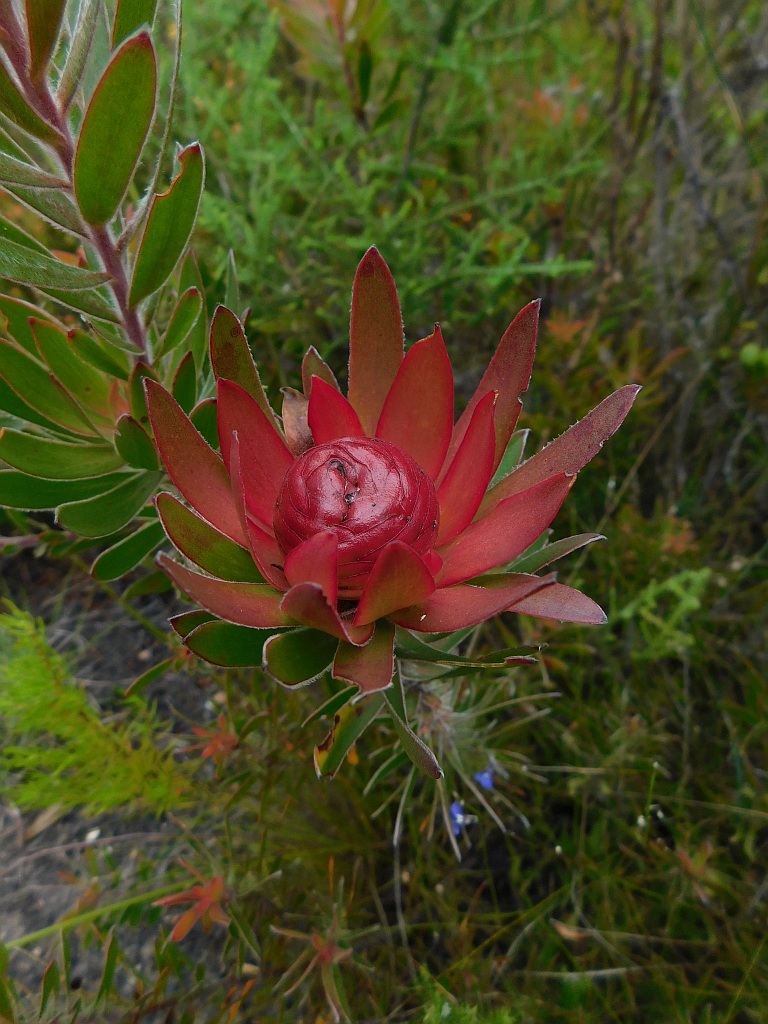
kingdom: Plantae
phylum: Tracheophyta
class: Magnoliopsida
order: Proteales
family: Proteaceae
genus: Leucadendron
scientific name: Leucadendron spissifolium
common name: Spear-leaf conebush
